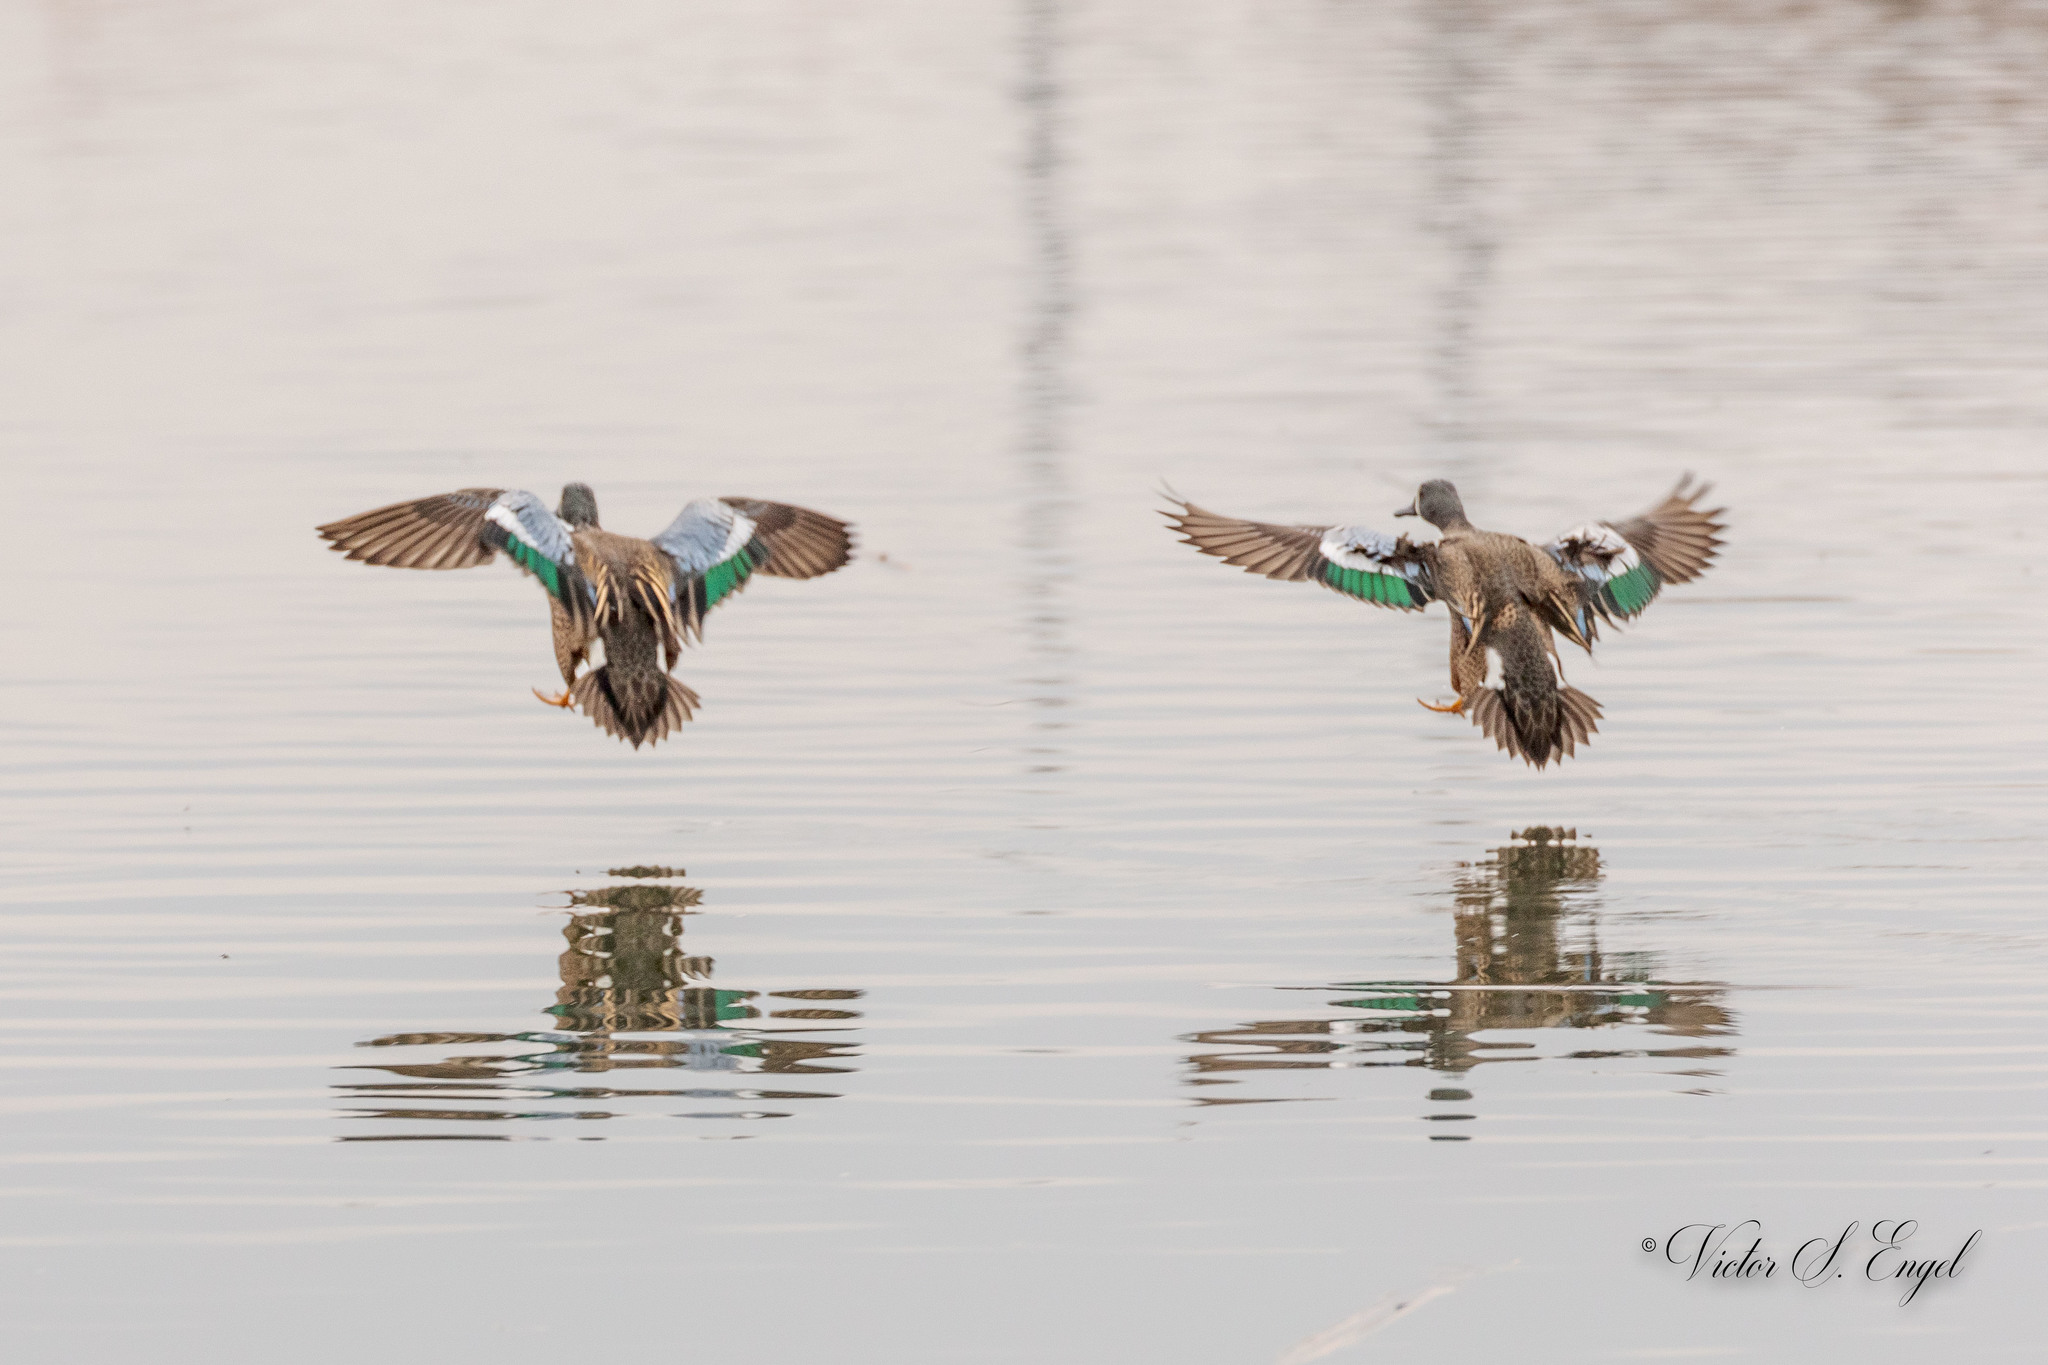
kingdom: Animalia
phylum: Chordata
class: Aves
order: Anseriformes
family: Anatidae
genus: Spatula
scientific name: Spatula discors
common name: Blue-winged teal
